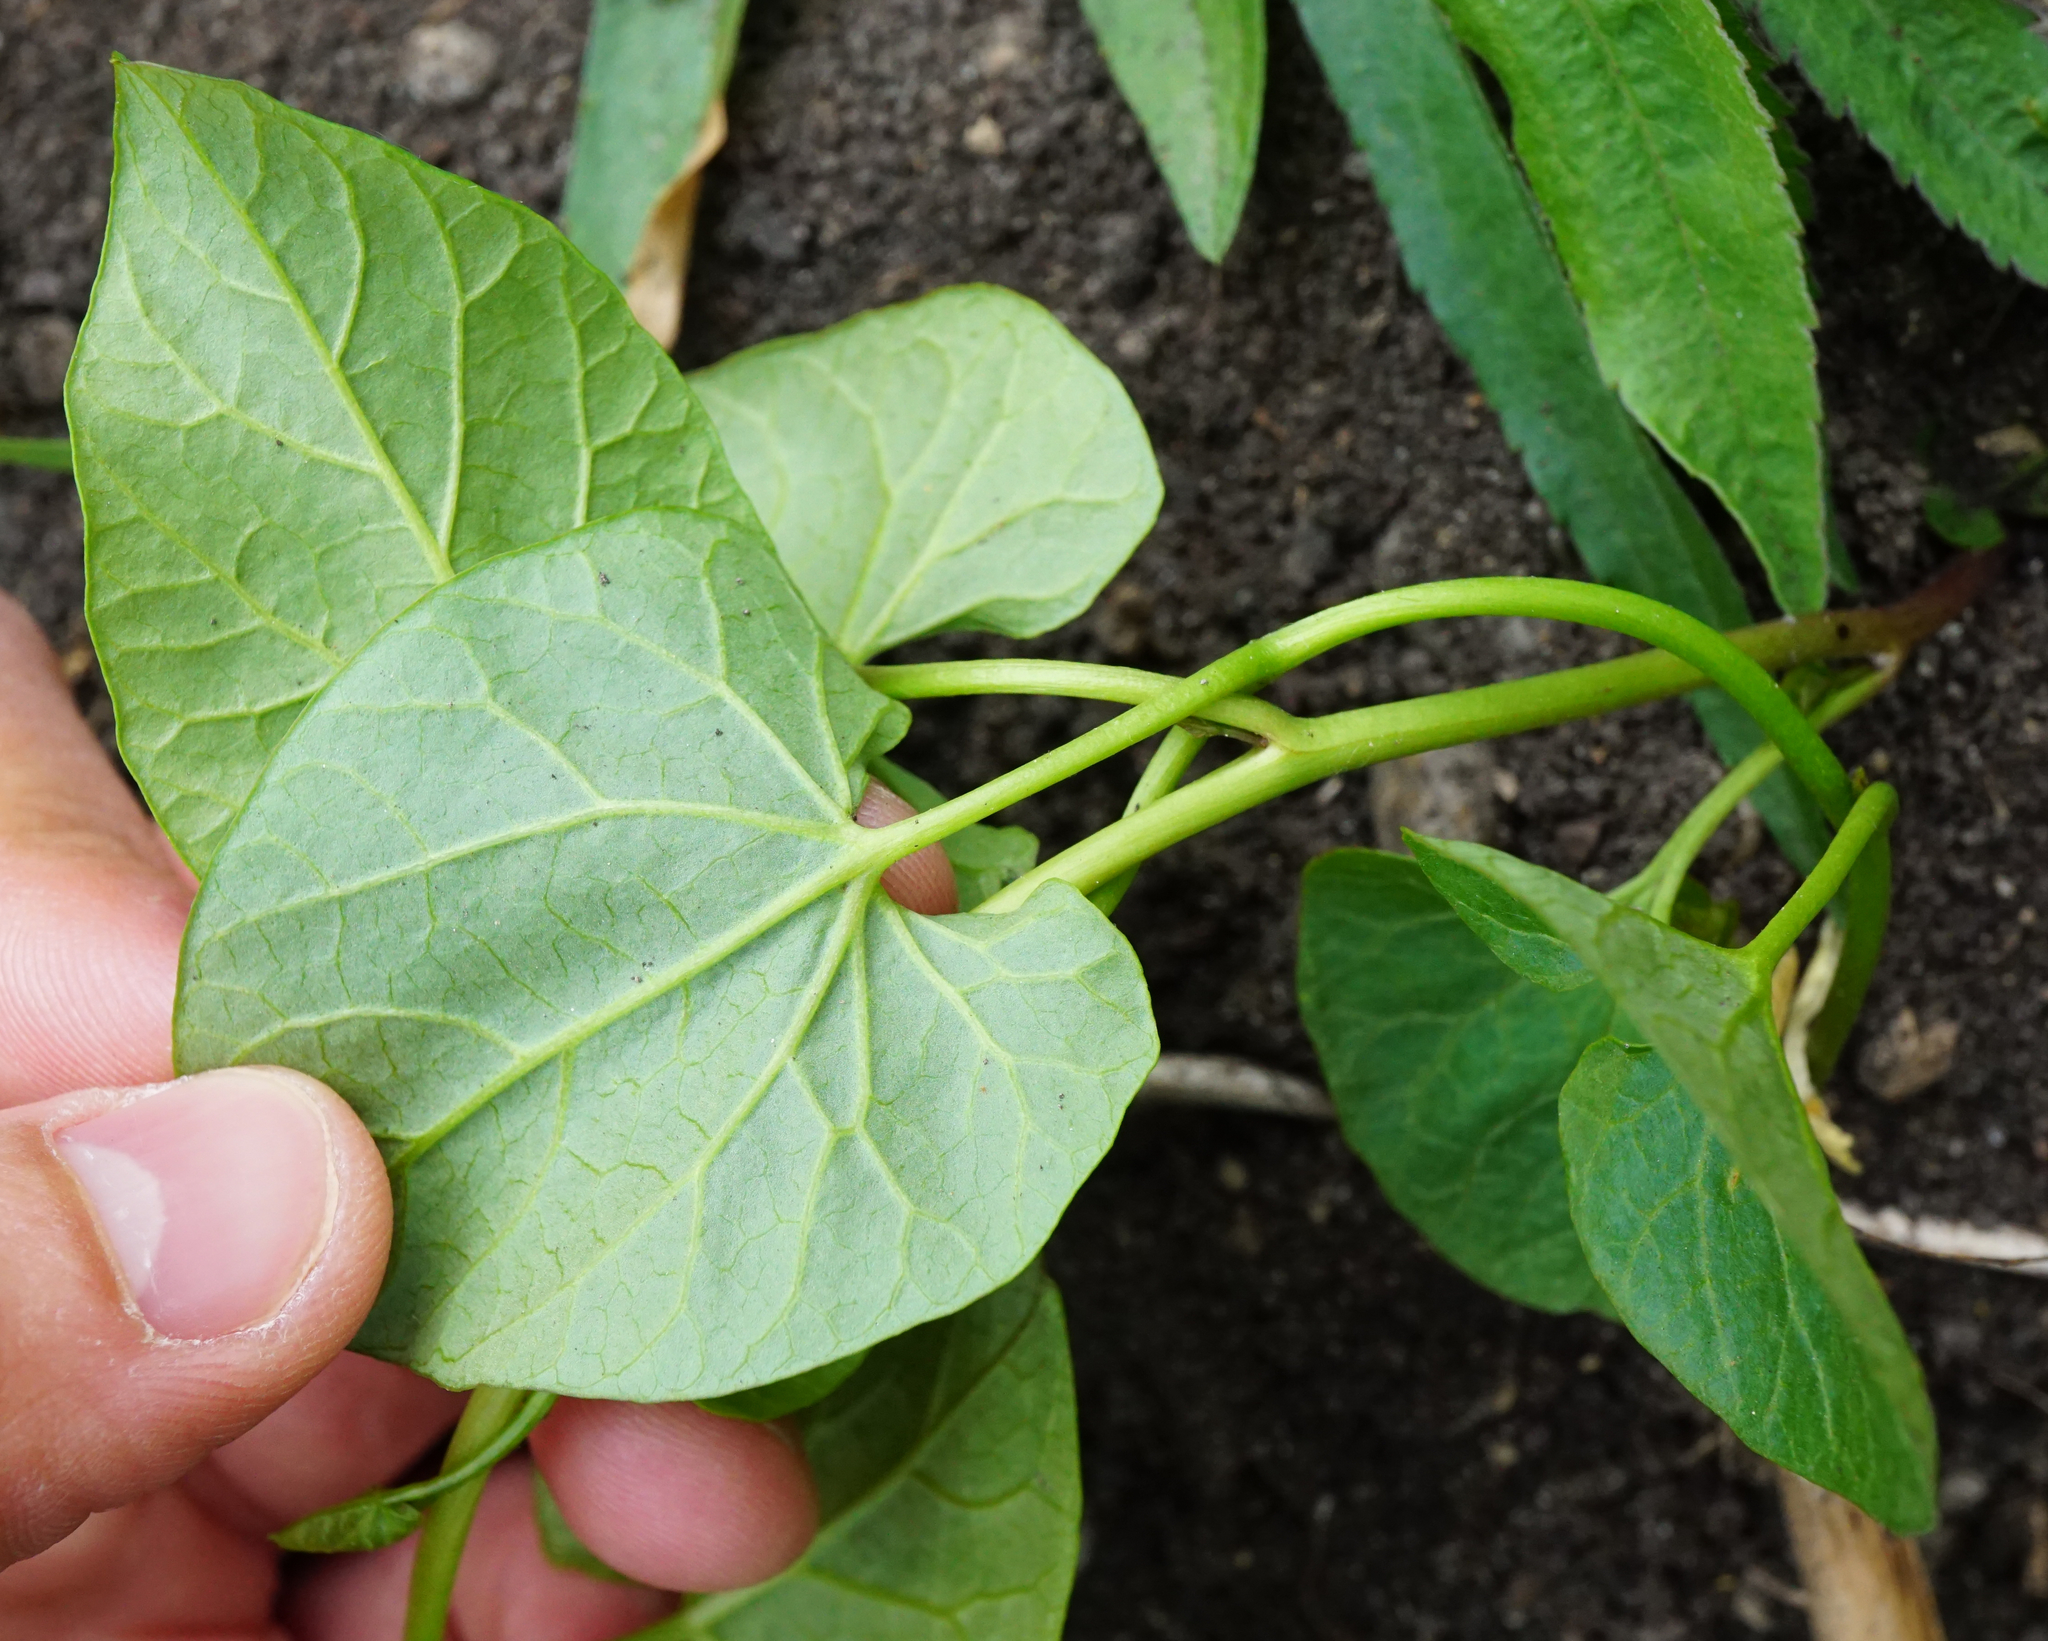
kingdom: Plantae
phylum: Tracheophyta
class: Magnoliopsida
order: Solanales
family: Convolvulaceae
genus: Calystegia
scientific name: Calystegia sepium
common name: Hedge bindweed
